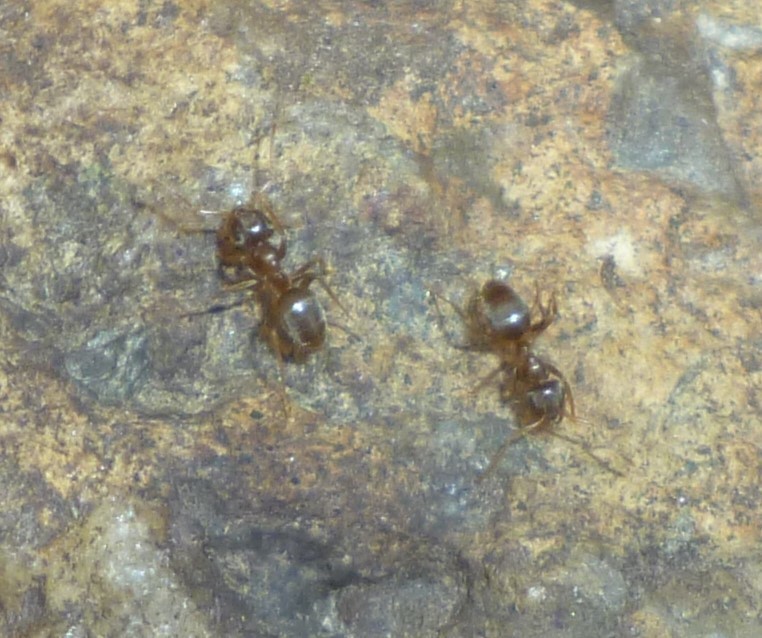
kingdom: Animalia
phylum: Arthropoda
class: Insecta
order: Hymenoptera
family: Formicidae
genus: Lasius
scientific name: Lasius
